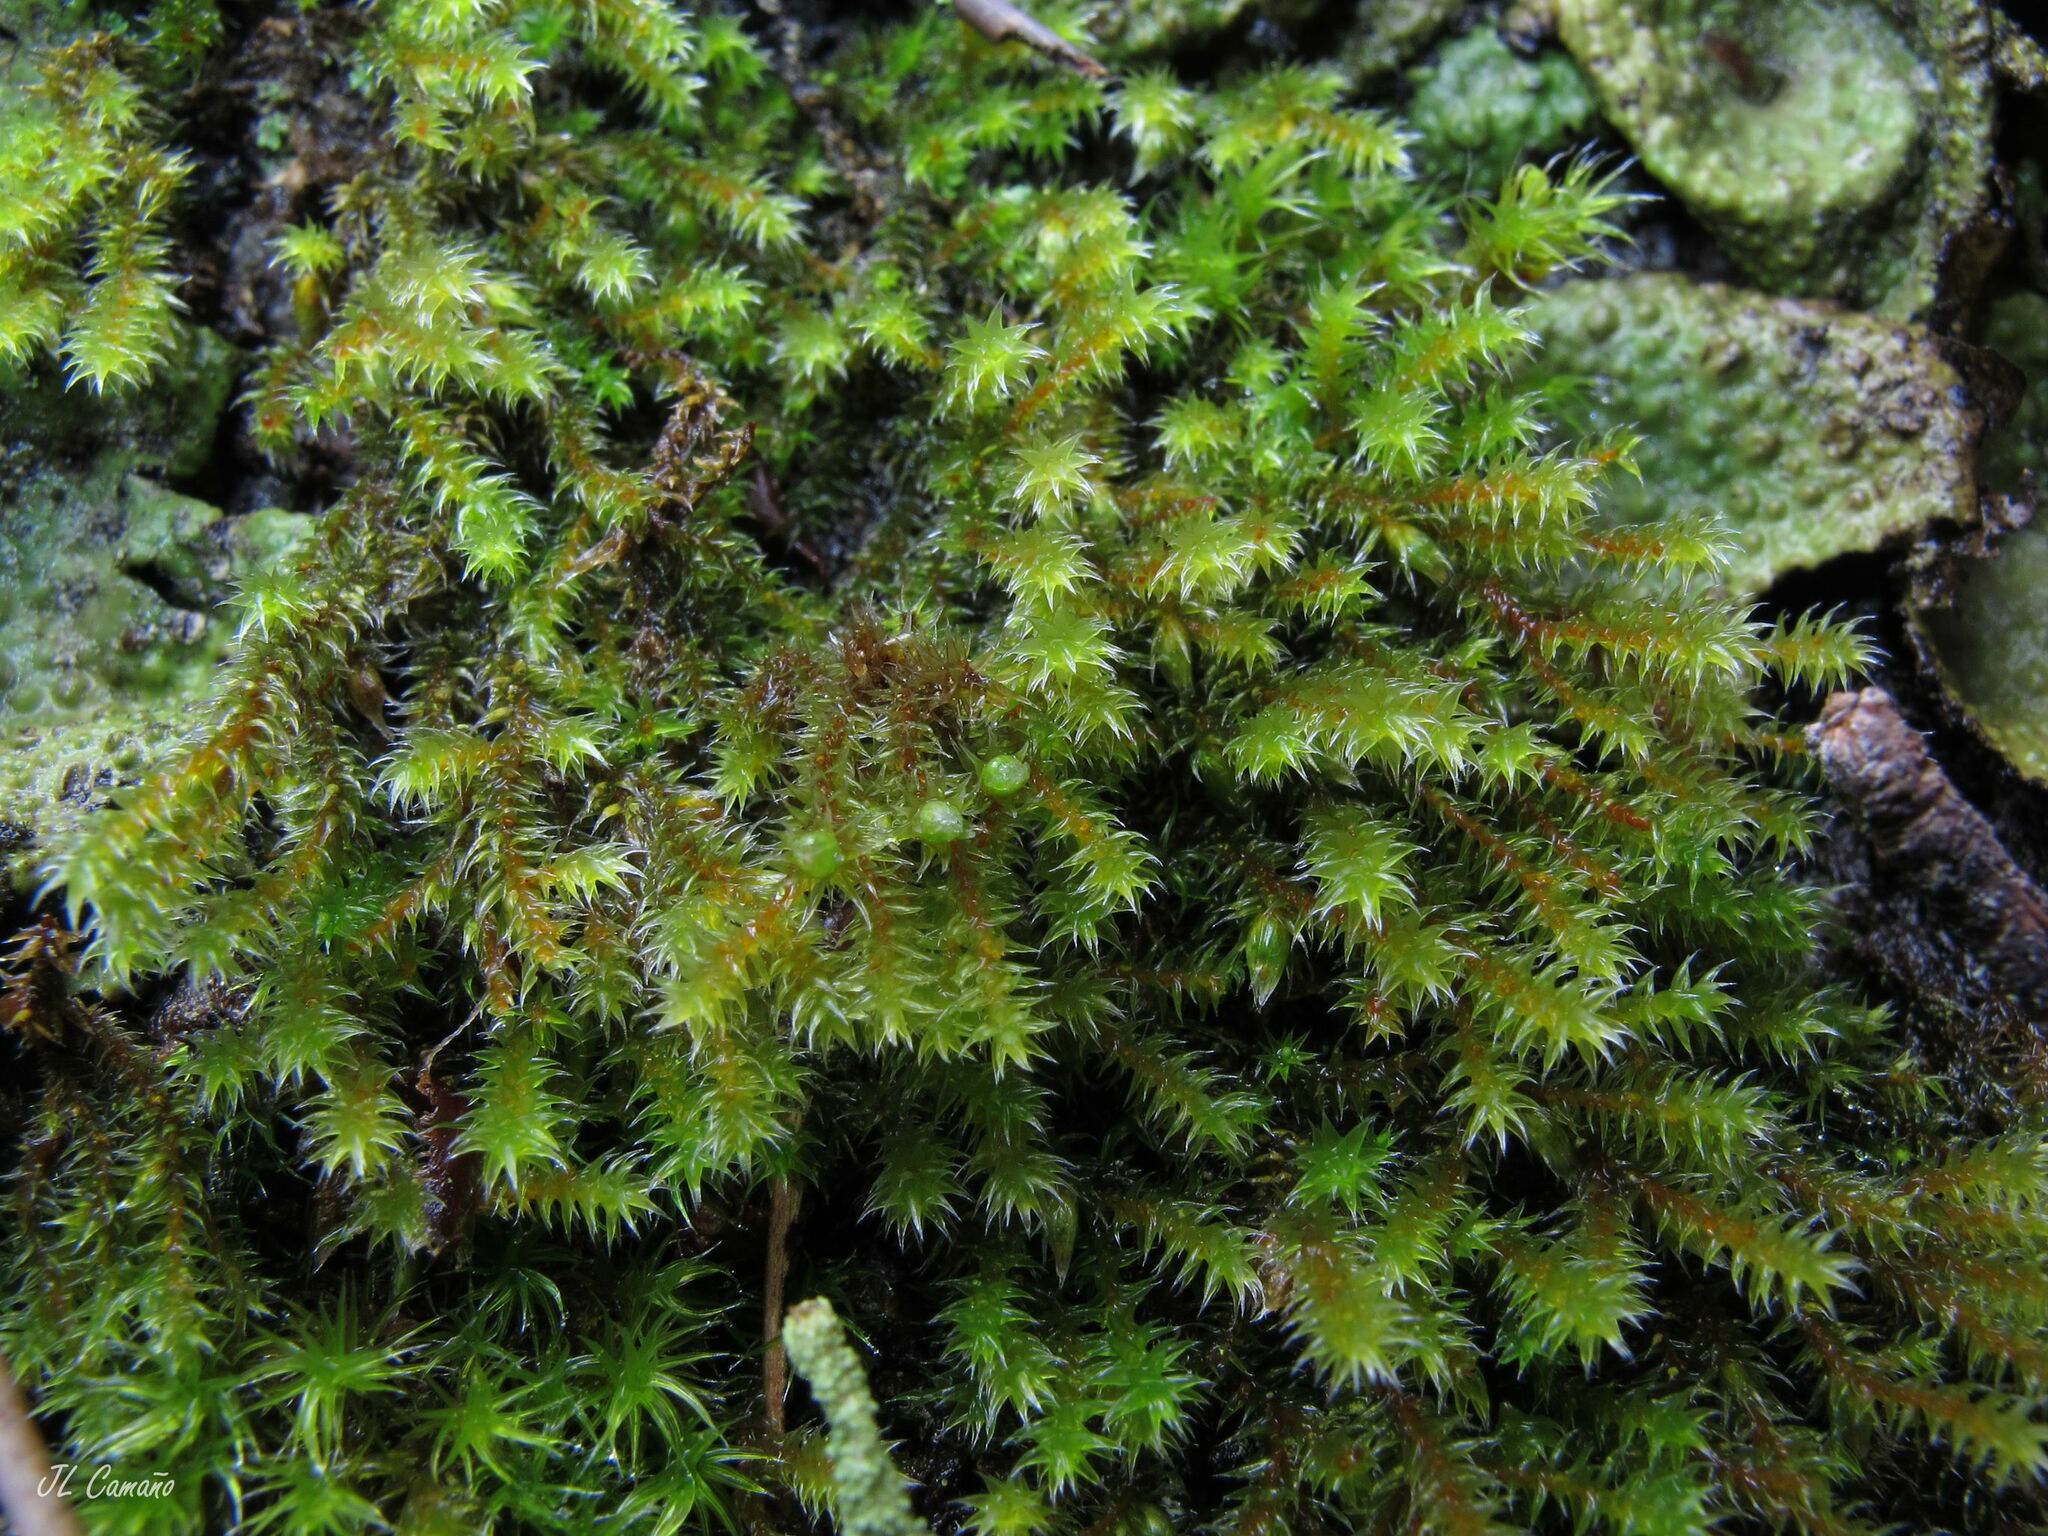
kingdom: Plantae
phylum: Bryophyta
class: Bryopsida
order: Hedwigiales
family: Hedwigiaceae
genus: Hedwigia
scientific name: Hedwigia stellata
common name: Starry hoar-moss
